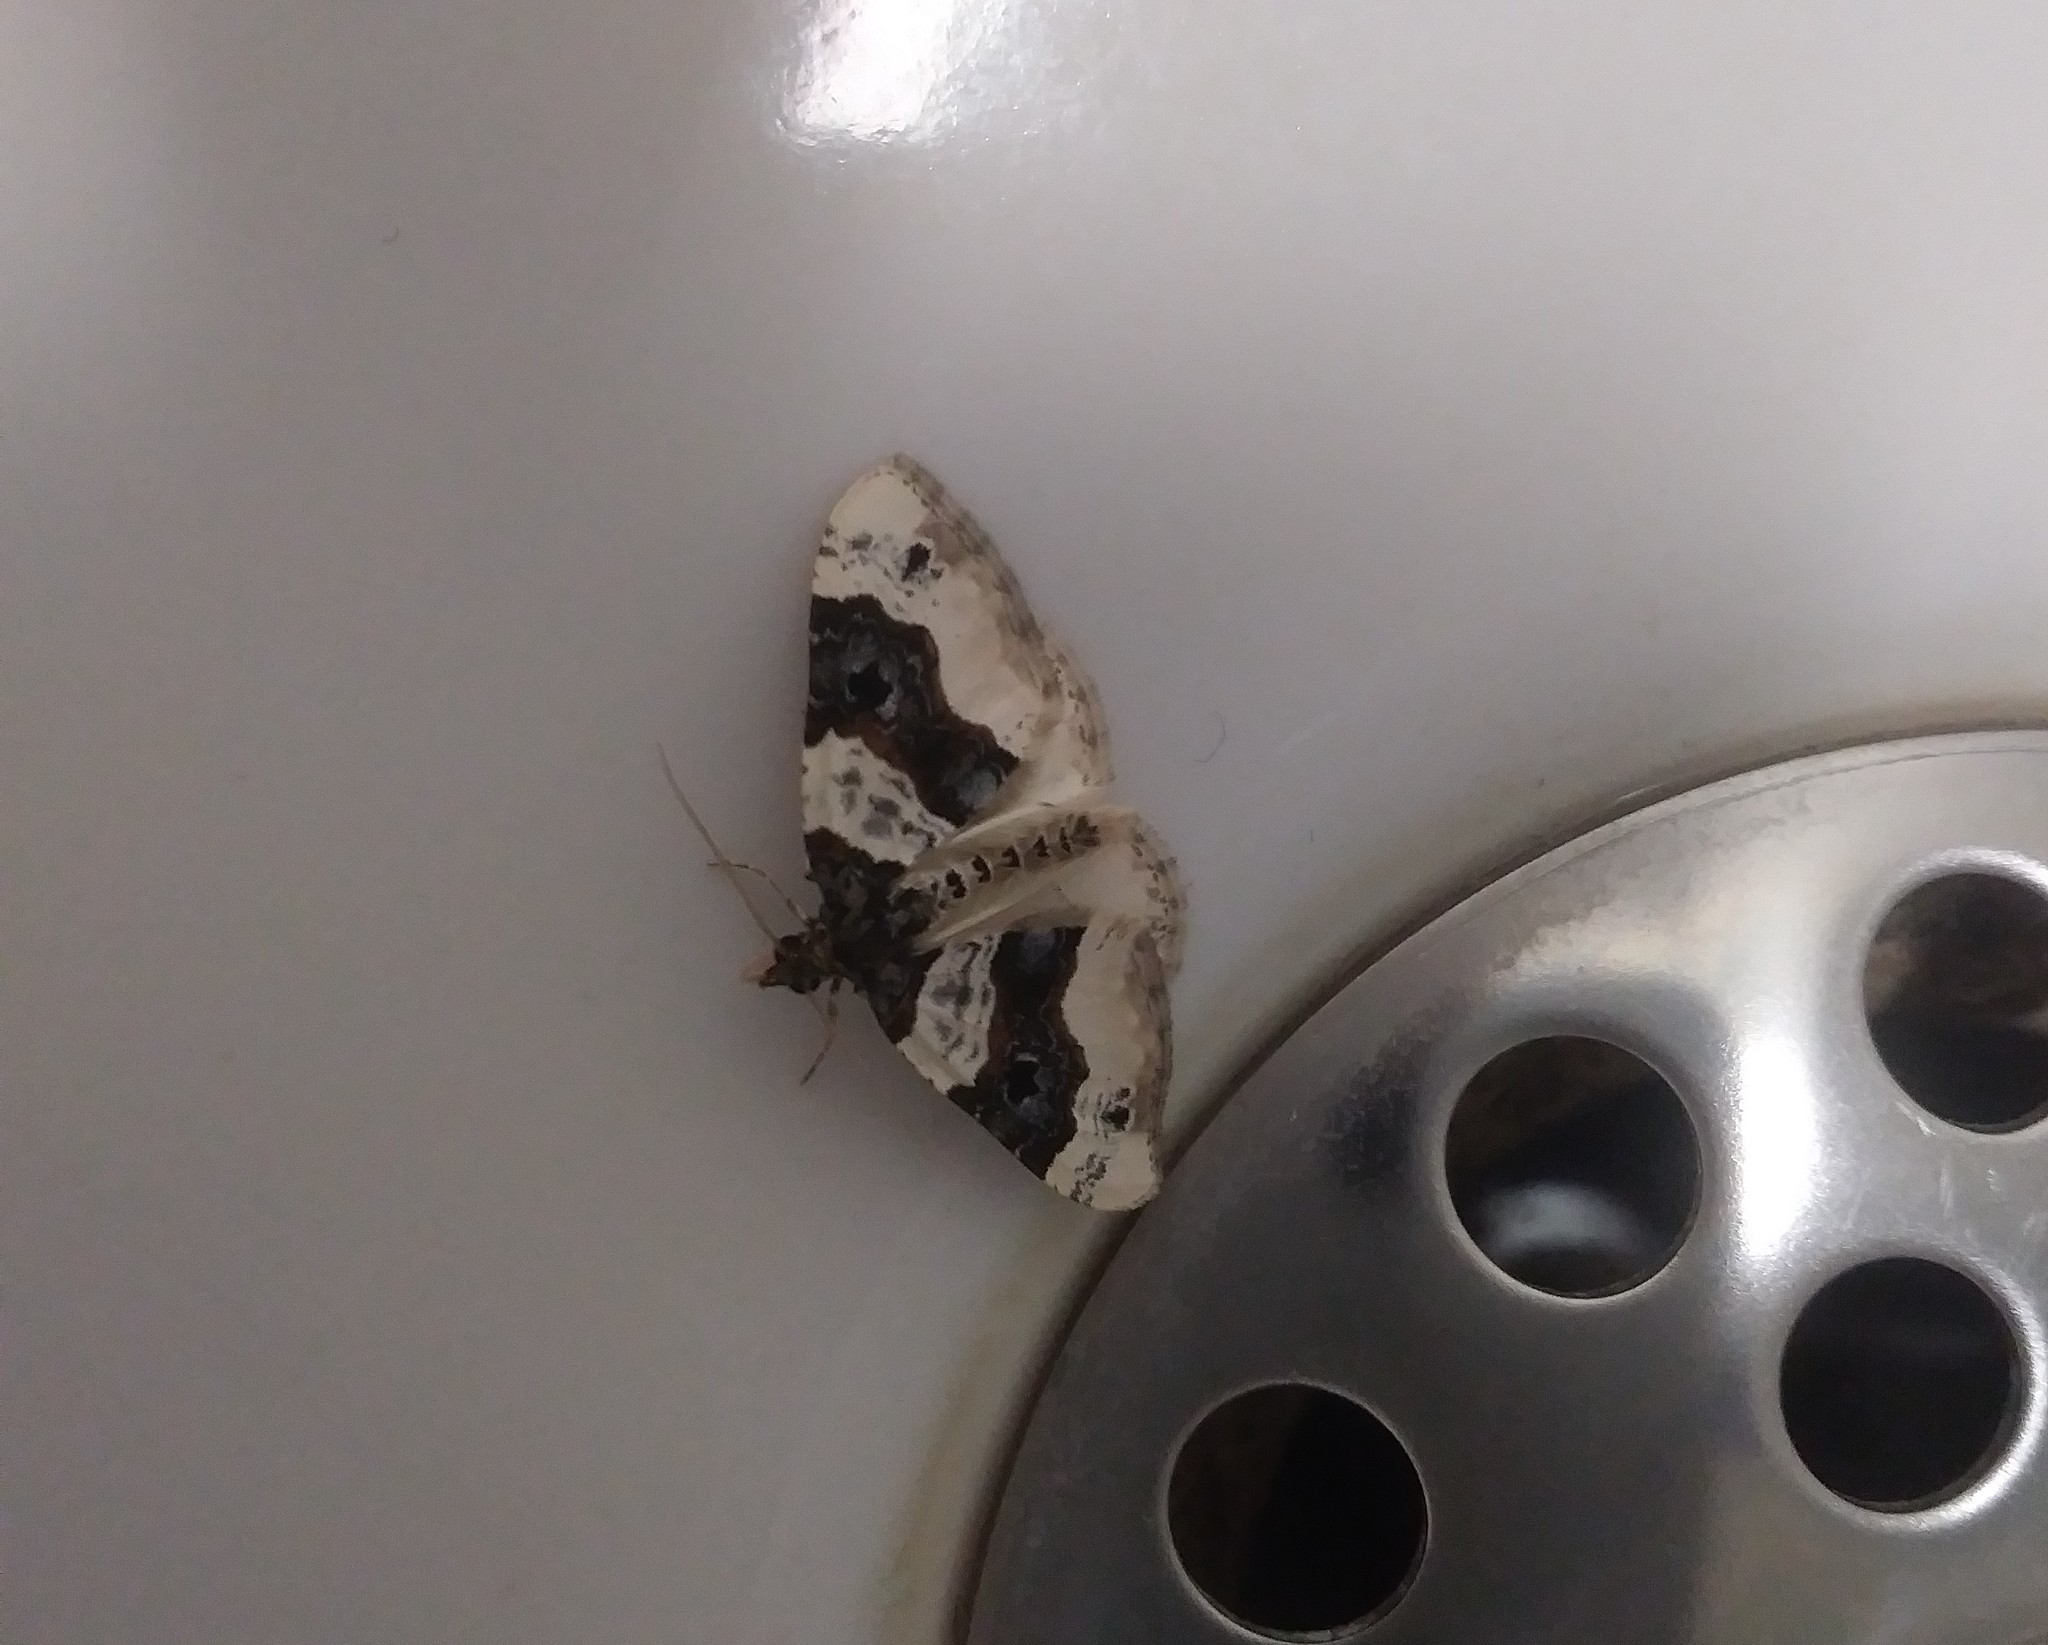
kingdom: Animalia
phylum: Arthropoda
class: Insecta
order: Lepidoptera
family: Geometridae
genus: Cosmorhoe
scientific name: Cosmorhoe ocellata
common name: Purple bar
